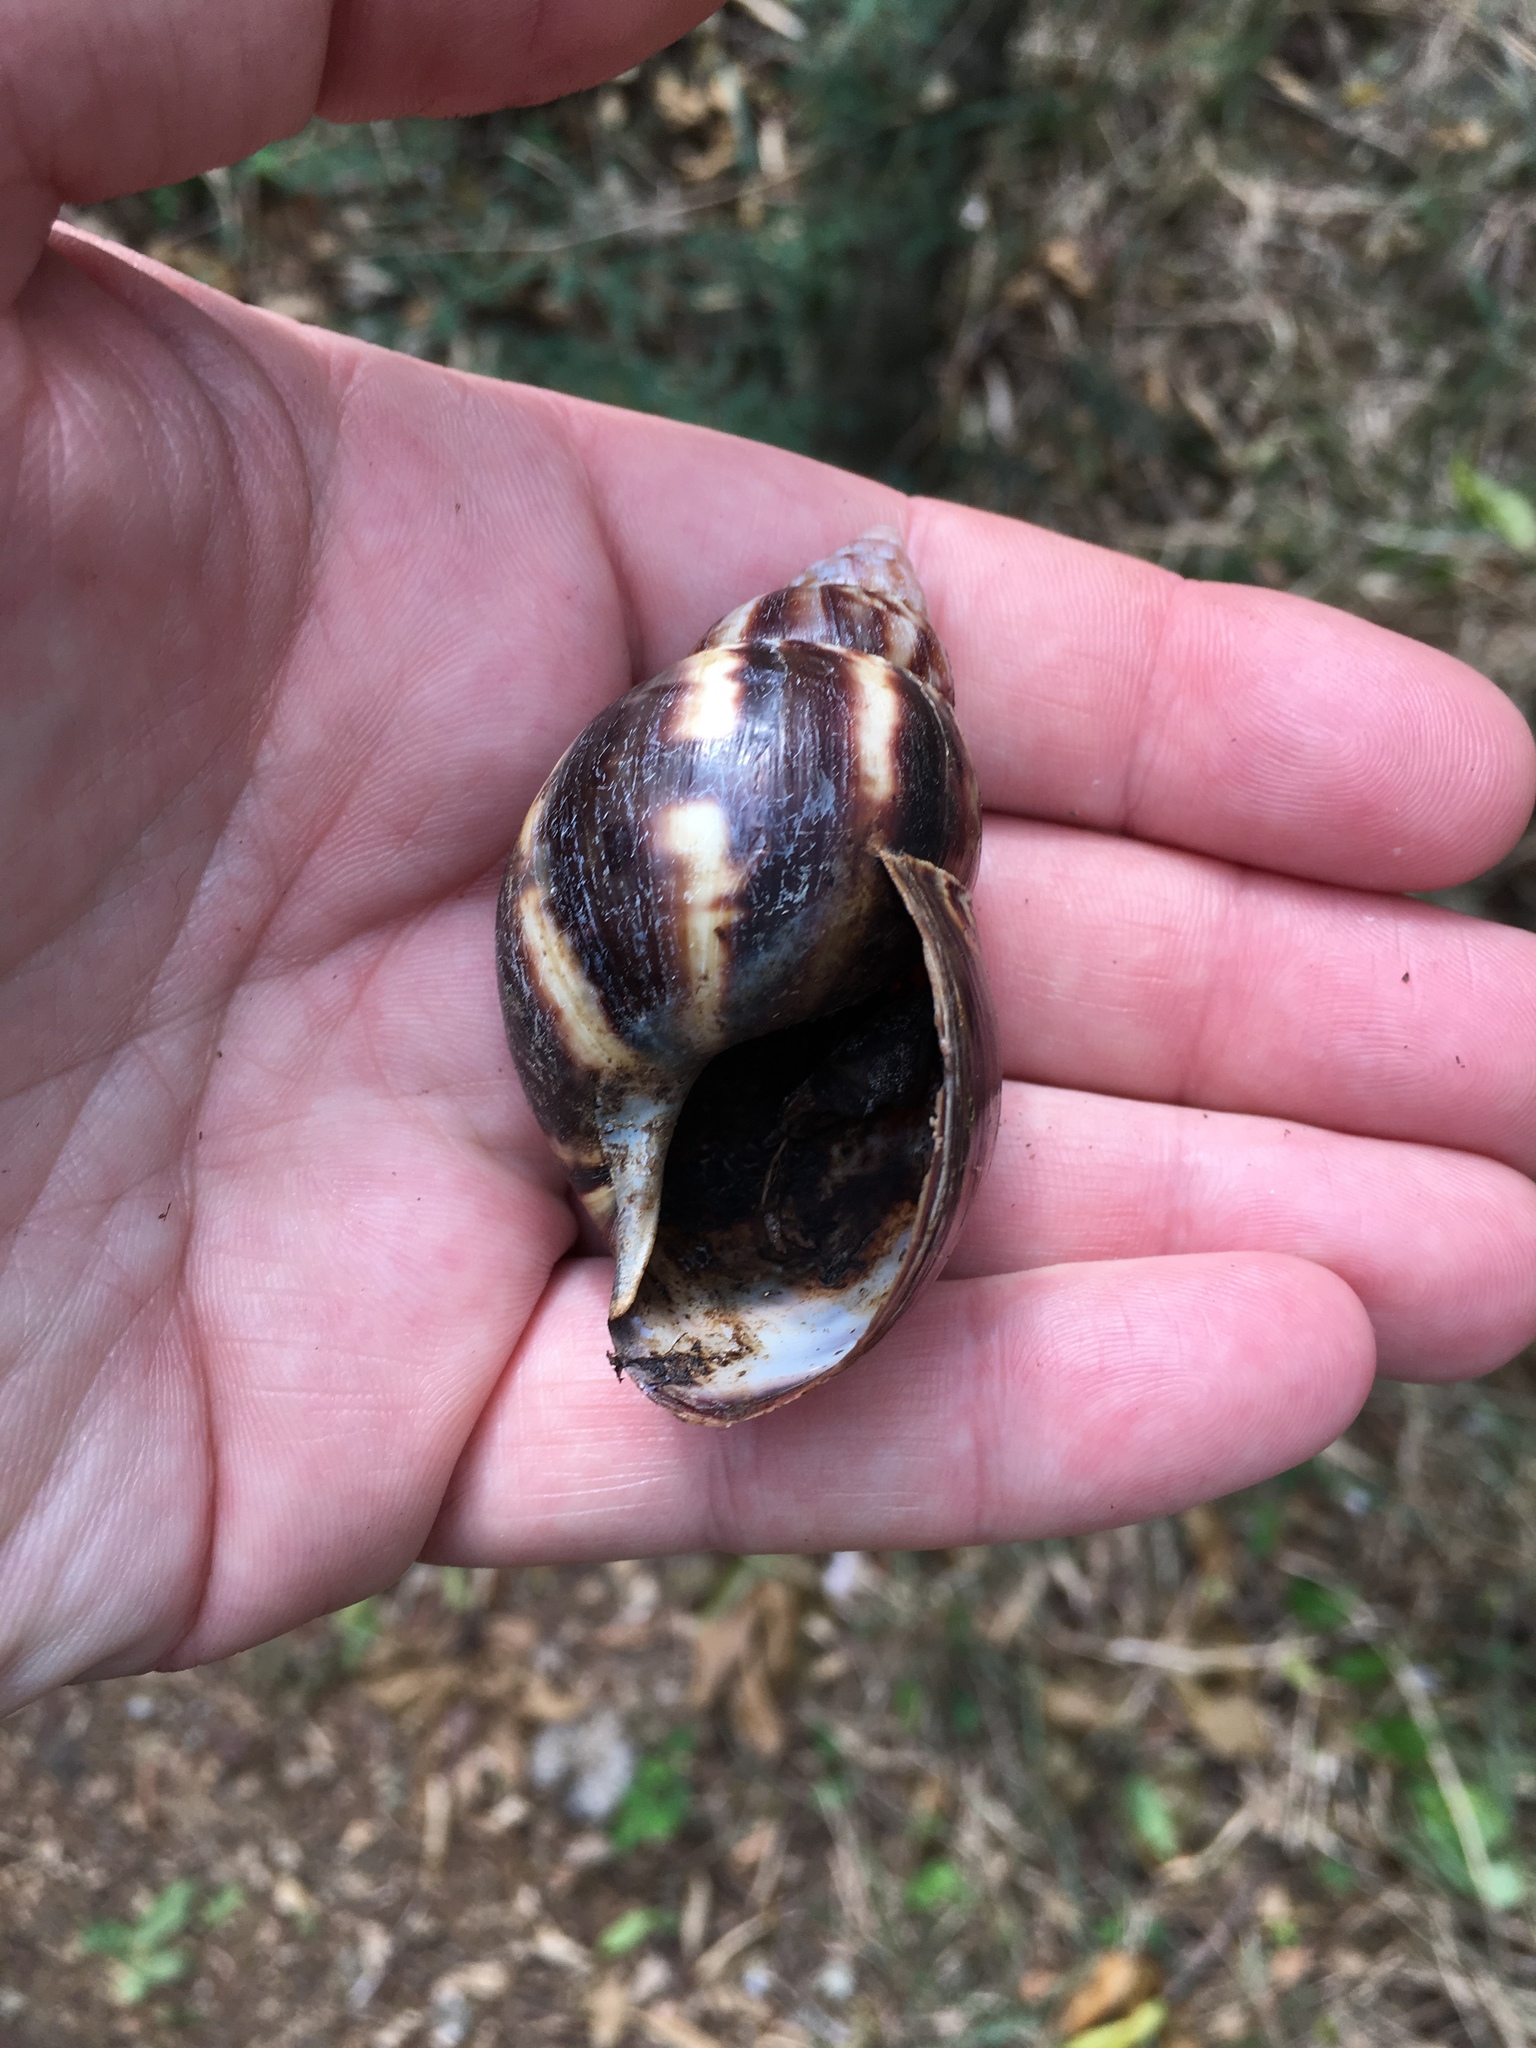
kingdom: Animalia
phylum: Mollusca
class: Gastropoda
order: Stylommatophora
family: Achatinidae
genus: Lissachatina
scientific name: Lissachatina fulica
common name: Giant african snail
